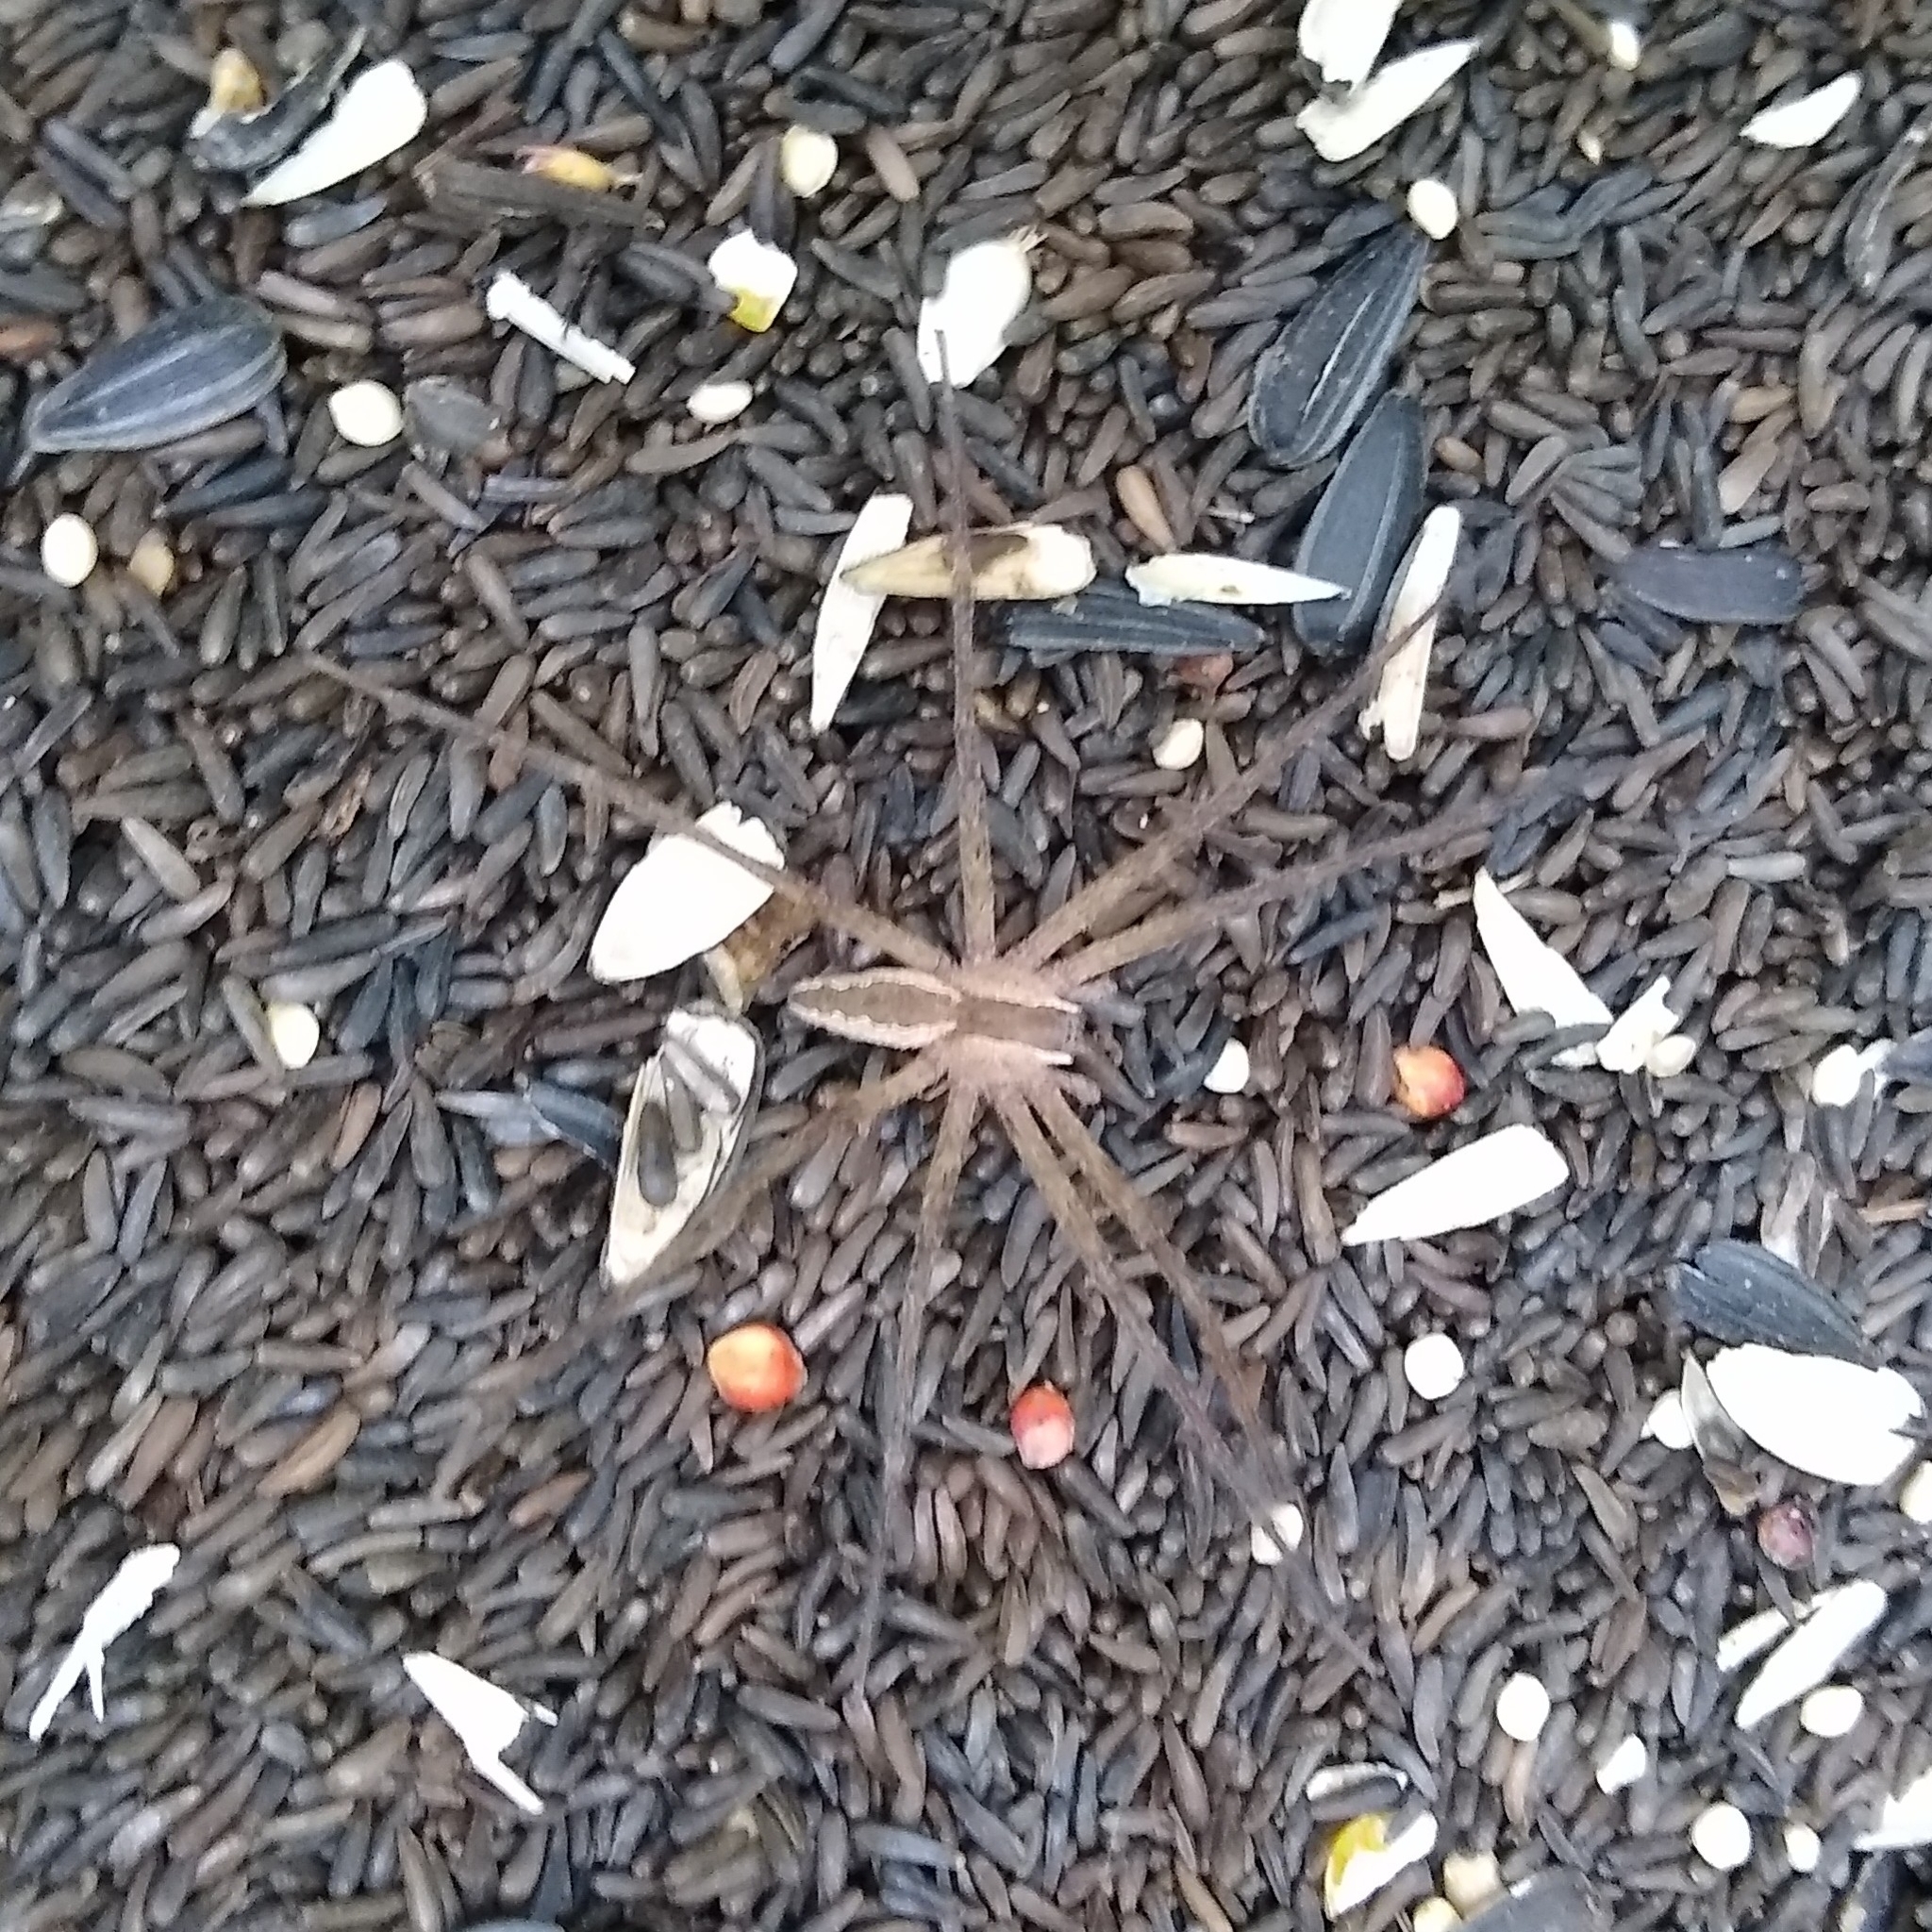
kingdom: Animalia
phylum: Arthropoda
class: Arachnida
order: Araneae
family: Pisauridae
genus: Pisaurina
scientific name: Pisaurina mira
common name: American nursery web spider
